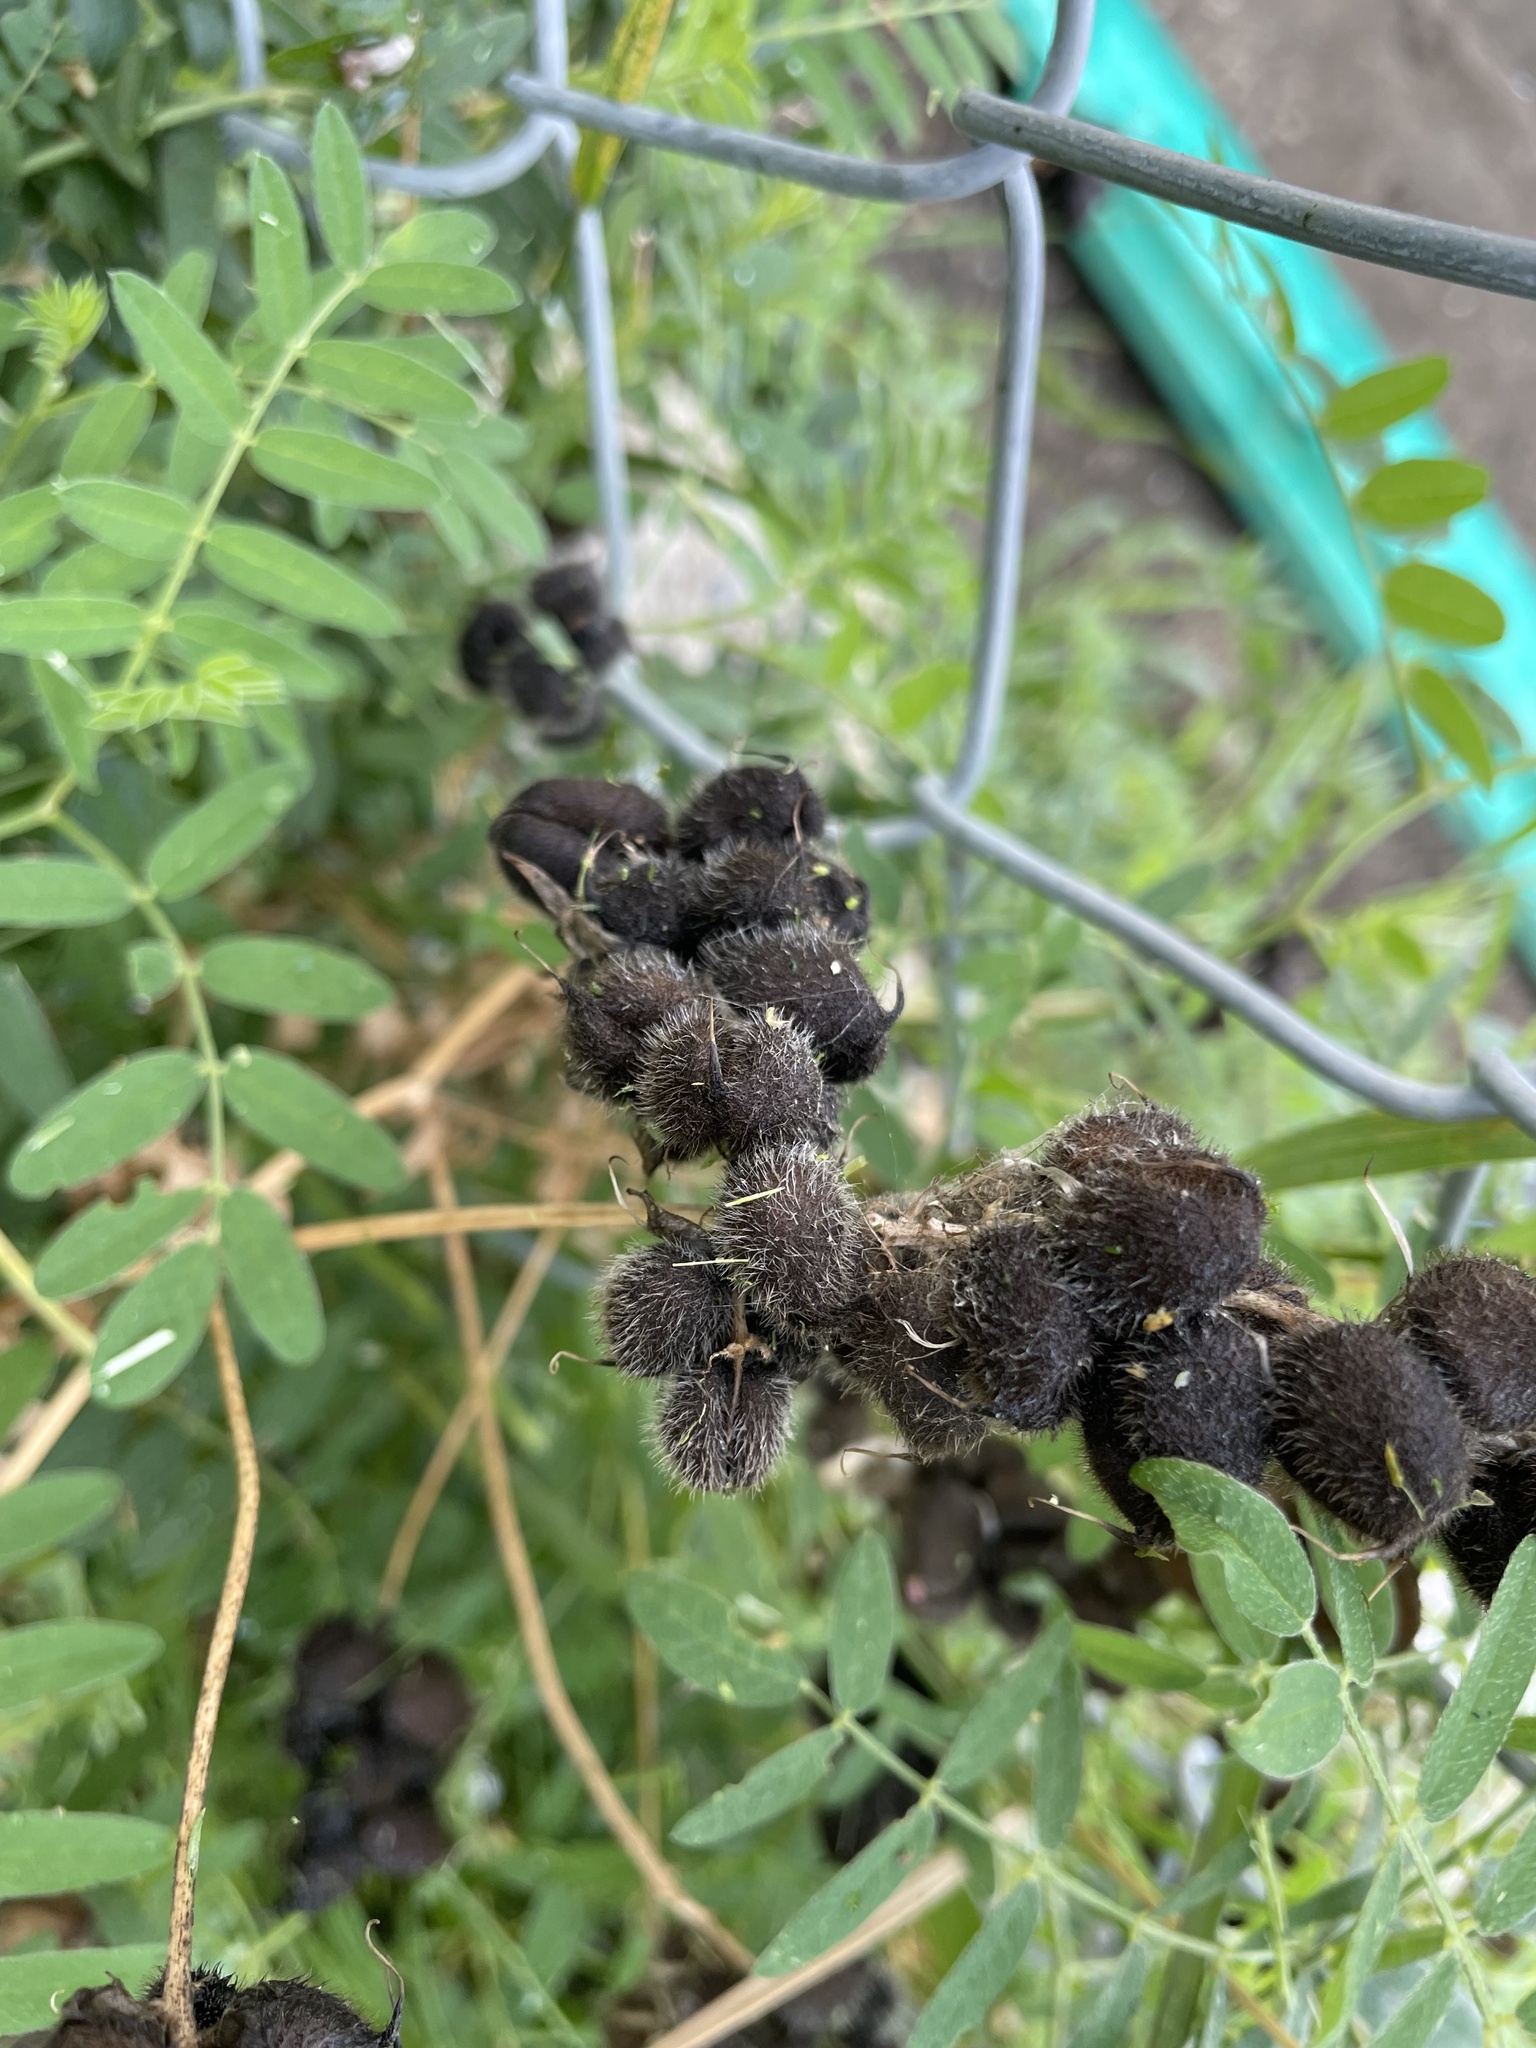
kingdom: Plantae
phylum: Tracheophyta
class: Magnoliopsida
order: Fabales
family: Fabaceae
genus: Astragalus
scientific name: Astragalus cicer
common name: Chick-pea milk-vetch
